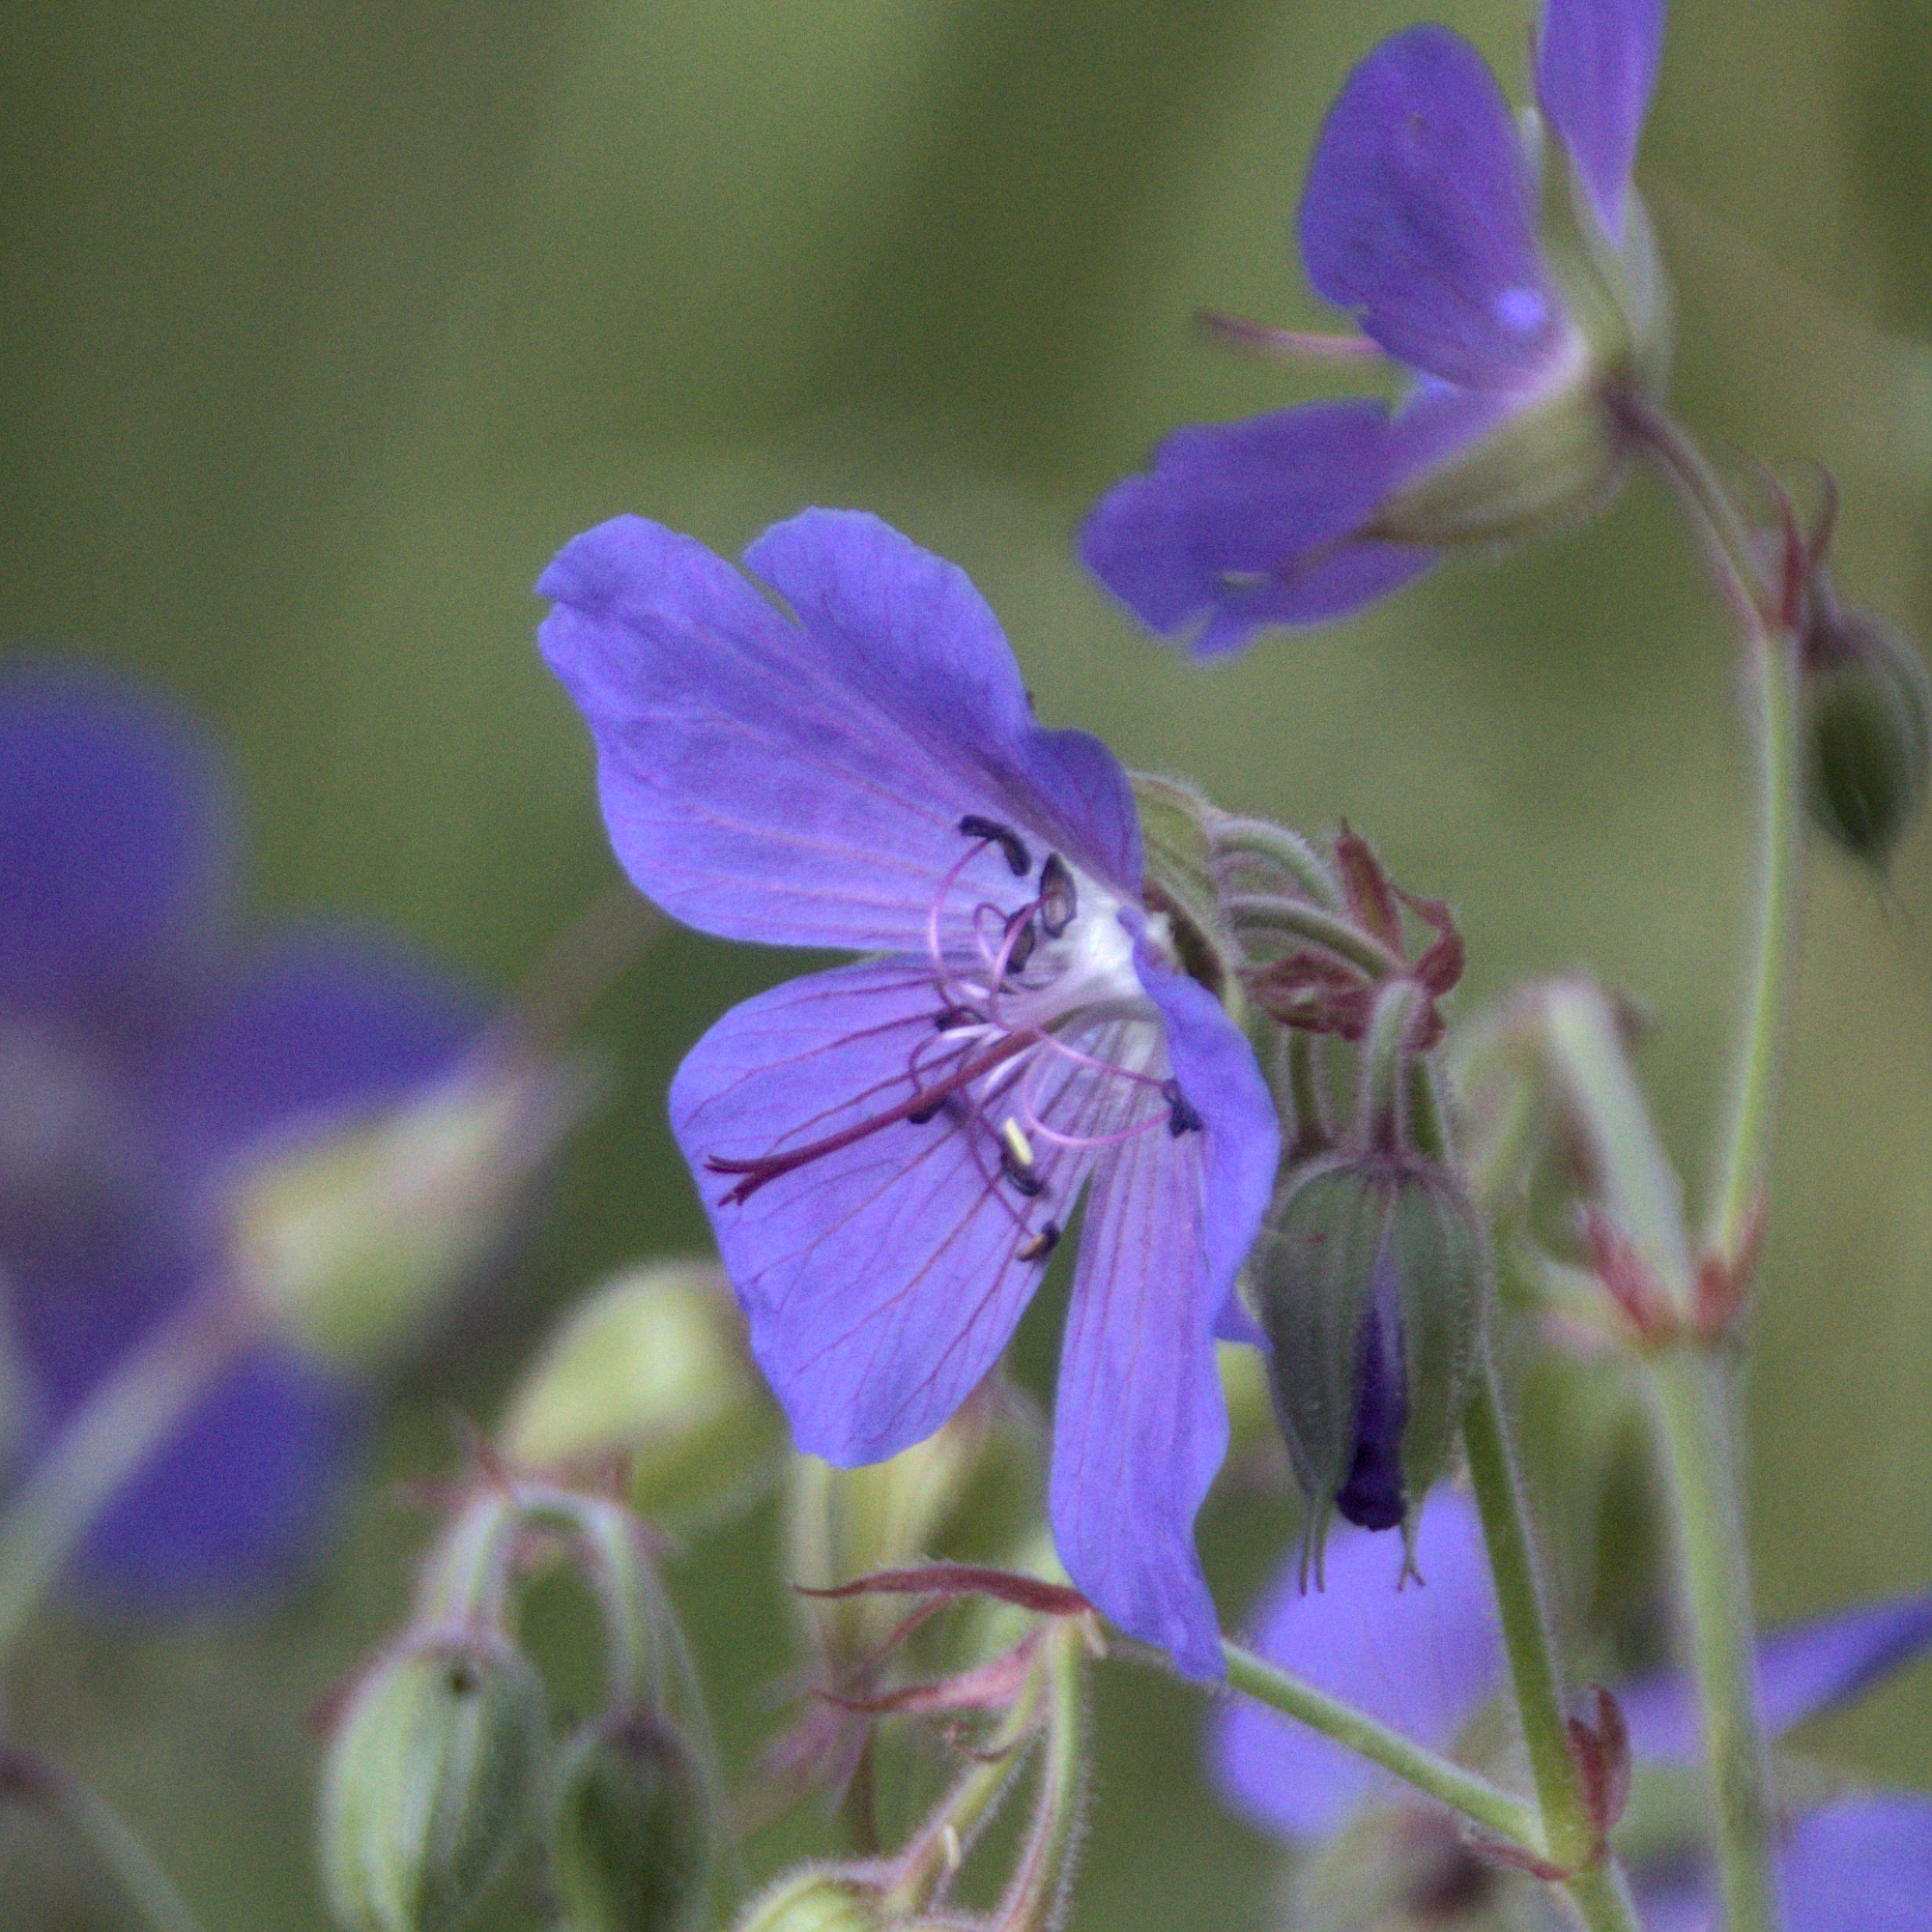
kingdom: Plantae
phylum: Tracheophyta
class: Magnoliopsida
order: Geraniales
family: Geraniaceae
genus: Geranium
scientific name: Geranium pratense
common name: Meadow crane's-bill
